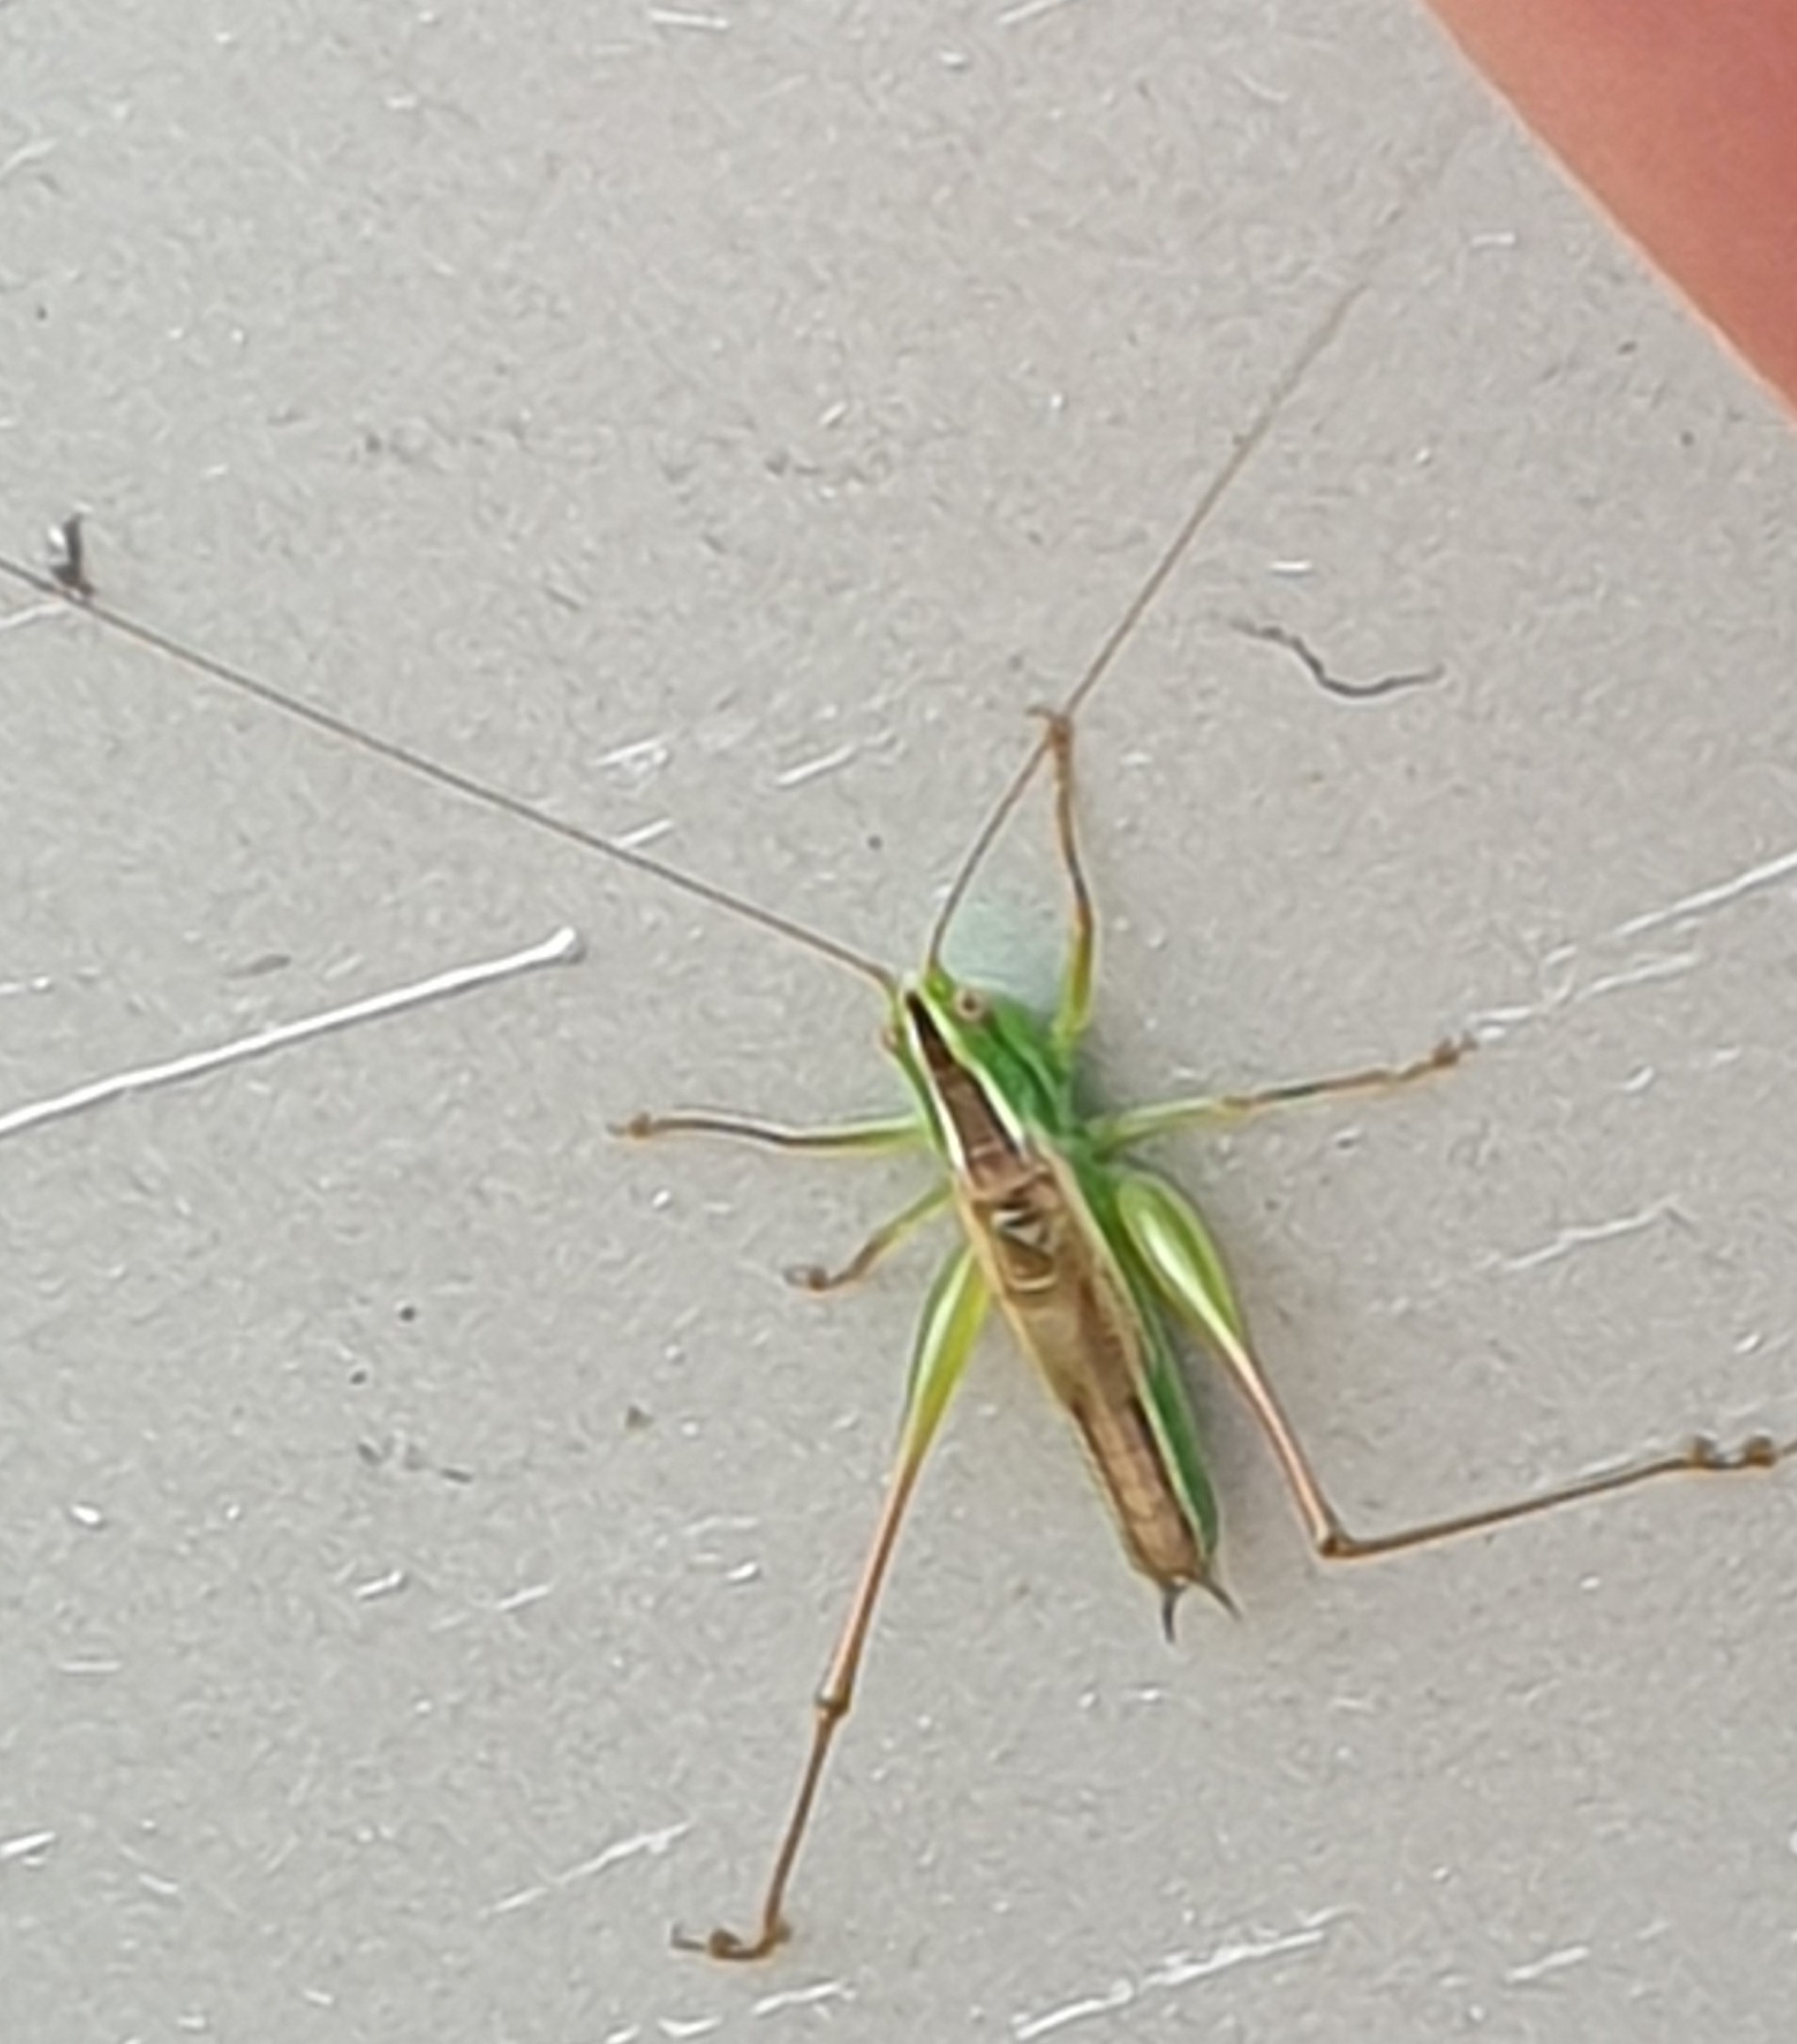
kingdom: Animalia
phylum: Arthropoda
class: Insecta
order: Orthoptera
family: Tettigoniidae
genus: Conocephalus
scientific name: Conocephalus bilineatus
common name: Small meadow katydid
